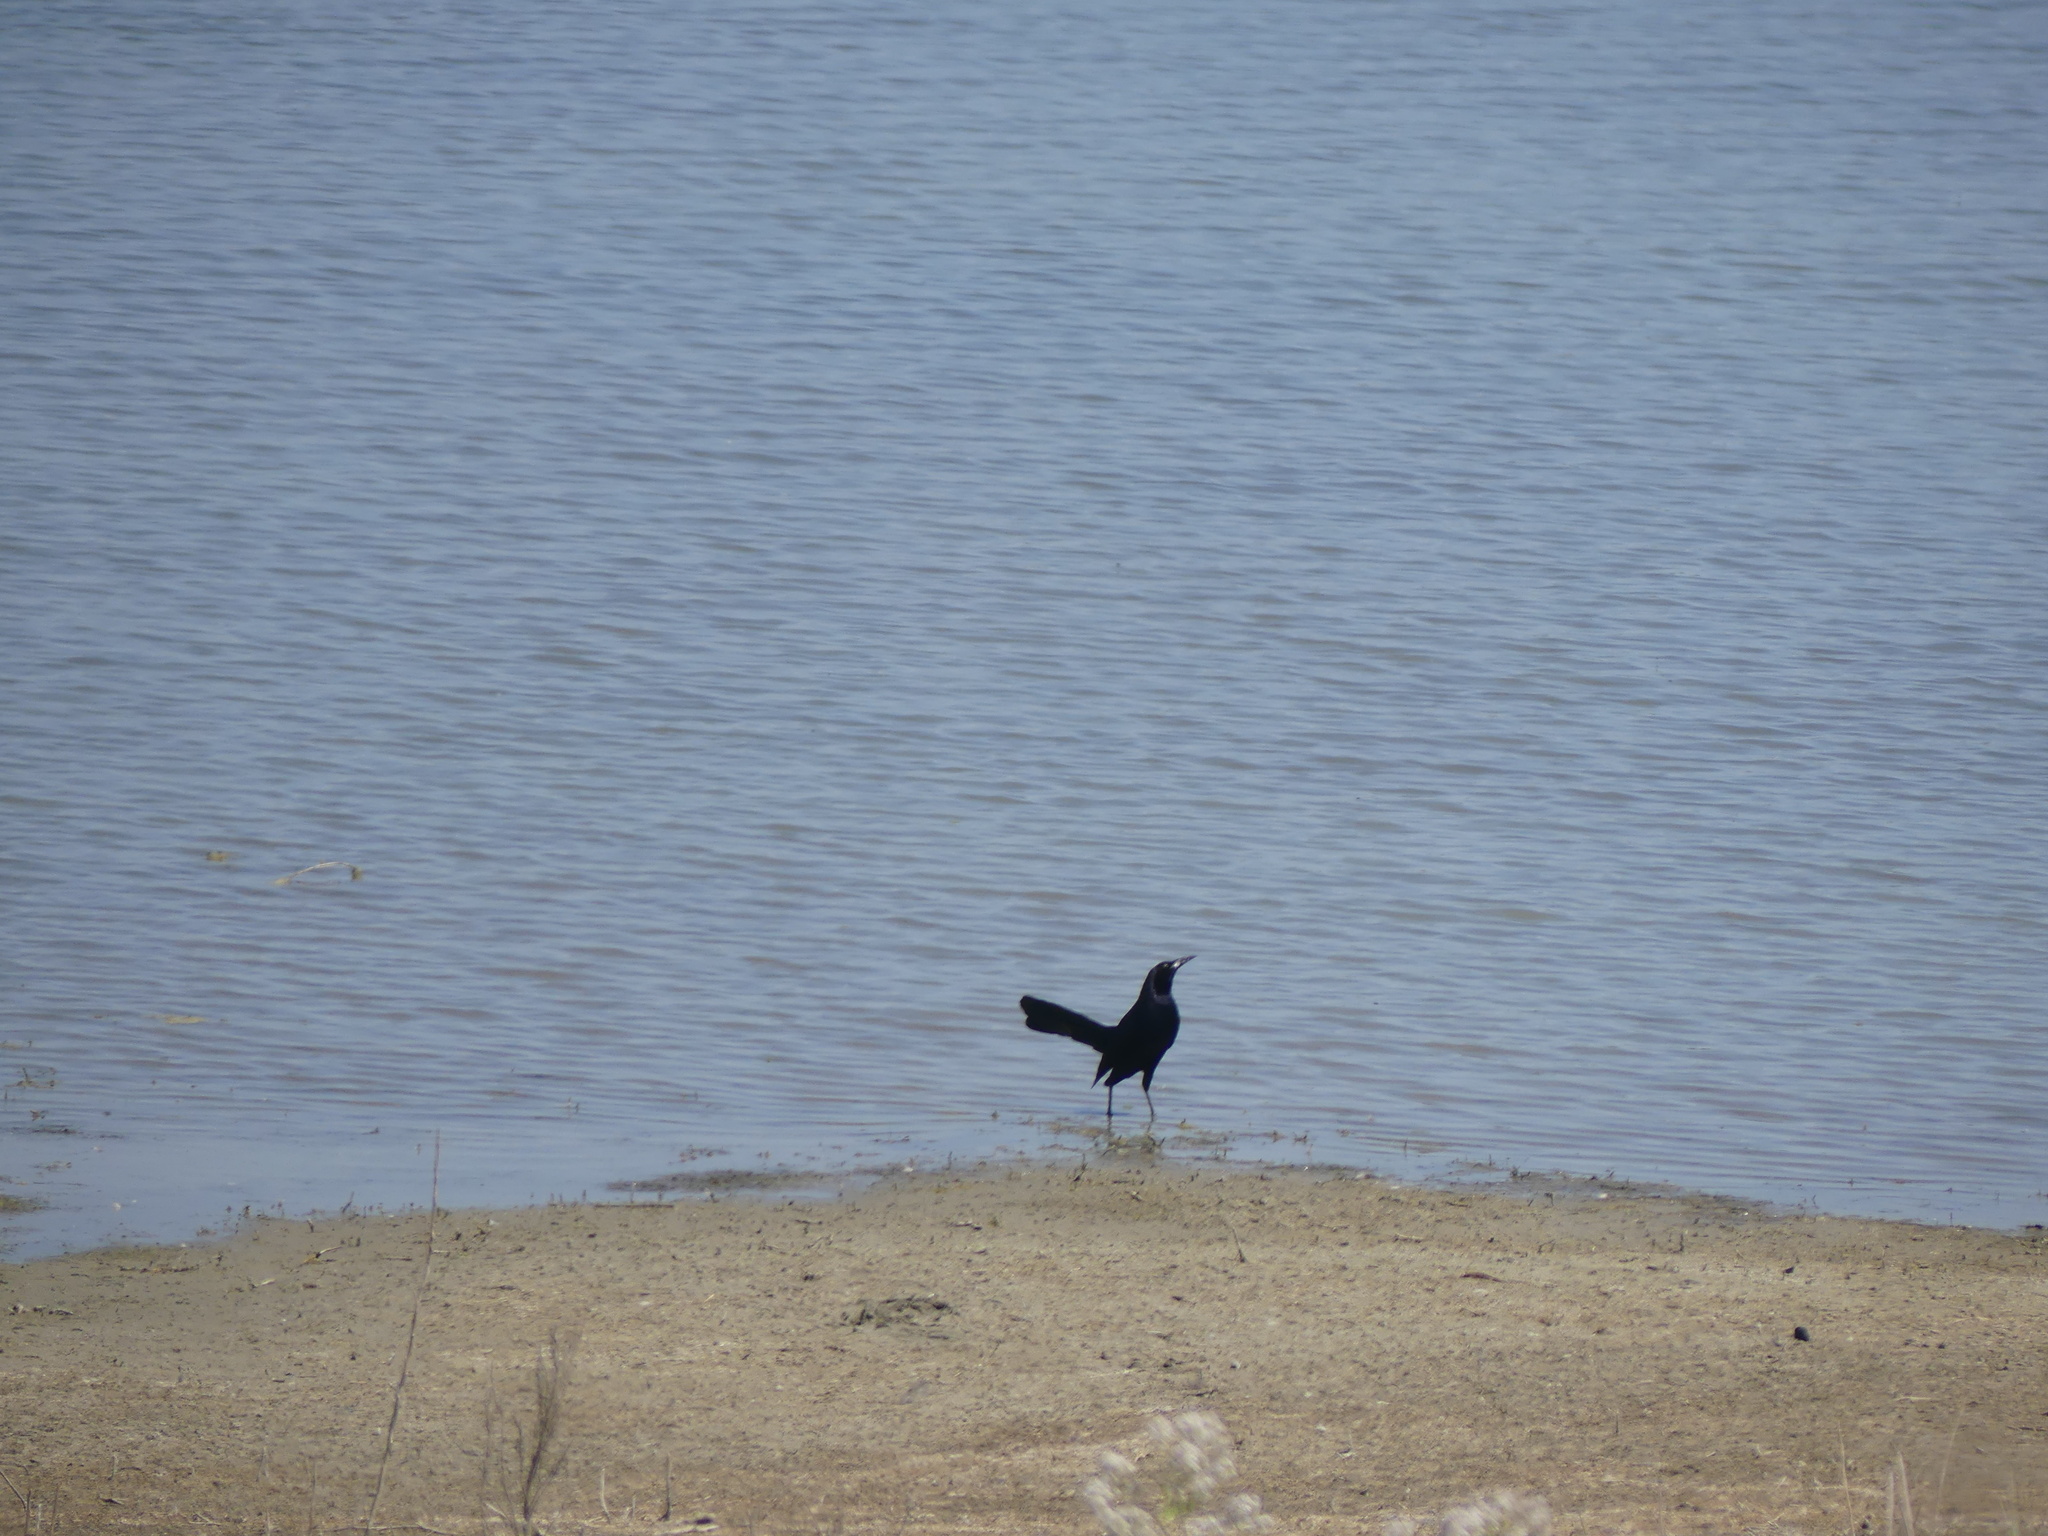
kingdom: Animalia
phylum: Chordata
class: Aves
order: Passeriformes
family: Icteridae
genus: Quiscalus
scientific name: Quiscalus mexicanus
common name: Great-tailed grackle
